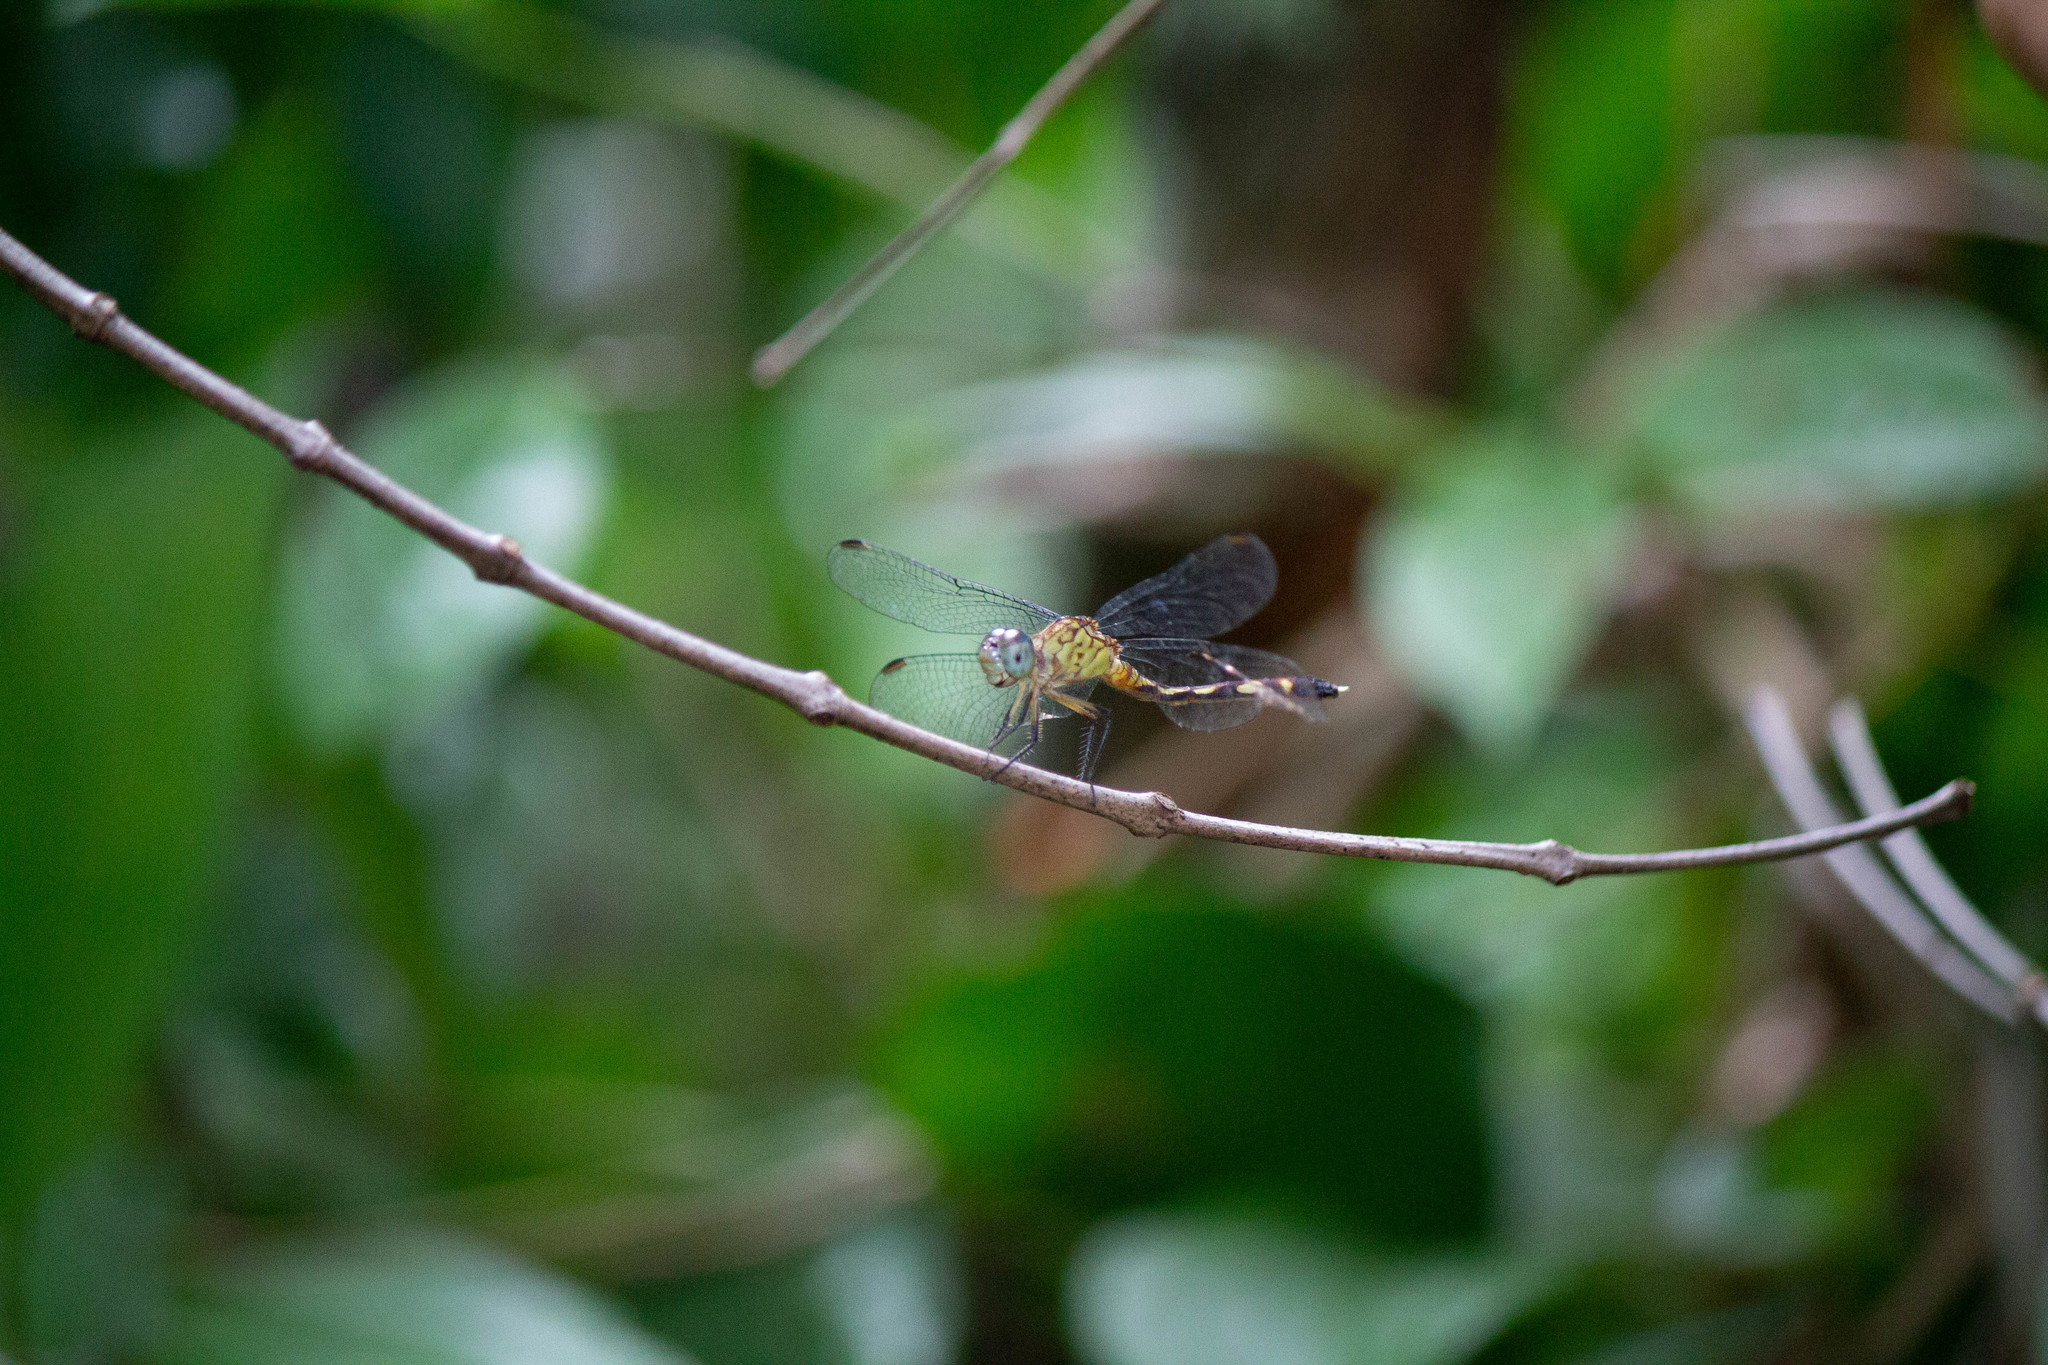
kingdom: Animalia
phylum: Arthropoda
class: Insecta
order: Odonata
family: Libellulidae
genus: Anatya
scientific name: Anatya guttata
